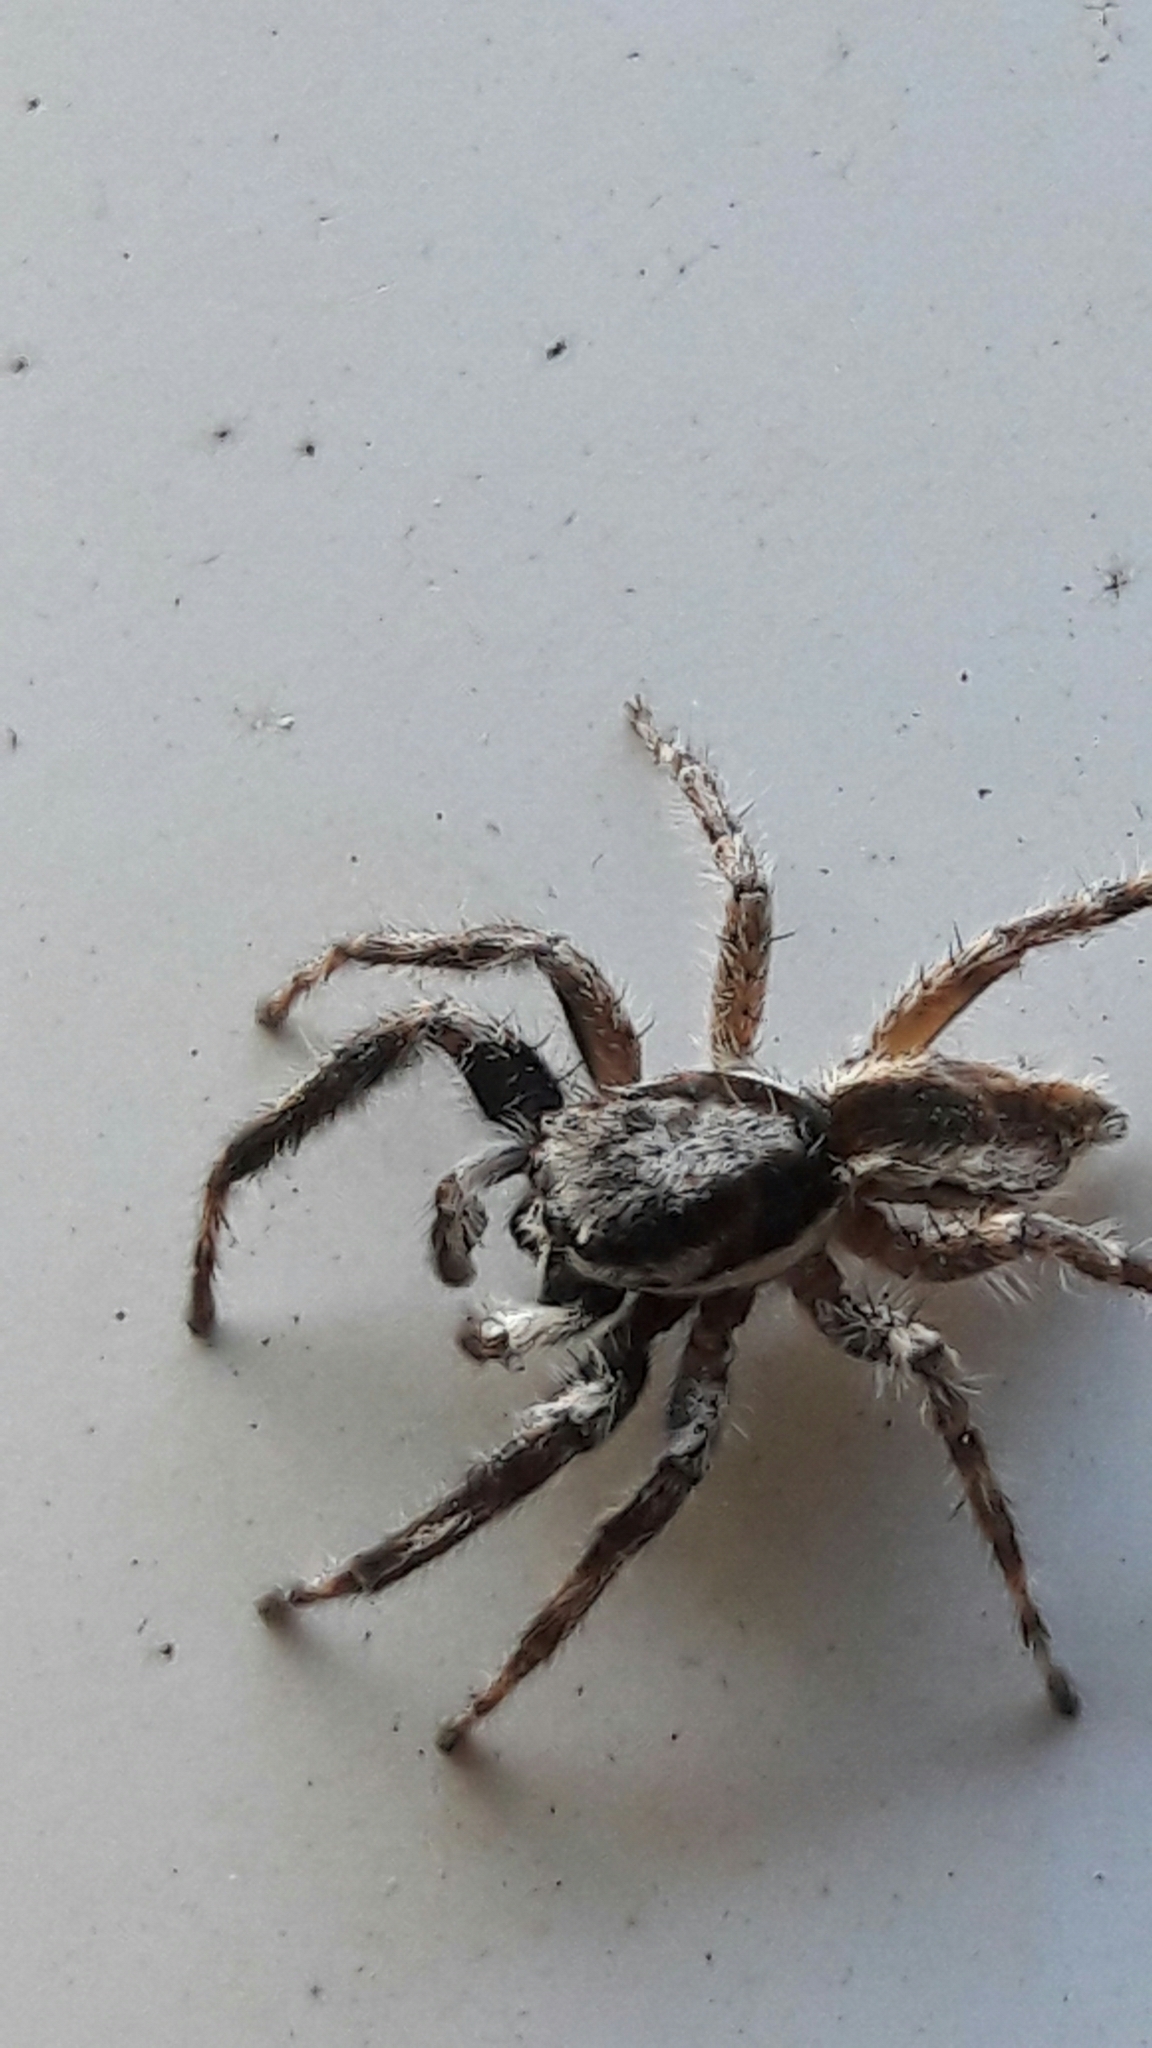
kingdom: Animalia
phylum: Arthropoda
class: Arachnida
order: Araneae
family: Salticidae
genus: Menemerus
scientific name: Menemerus bivittatus
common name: Gray wall jumper
